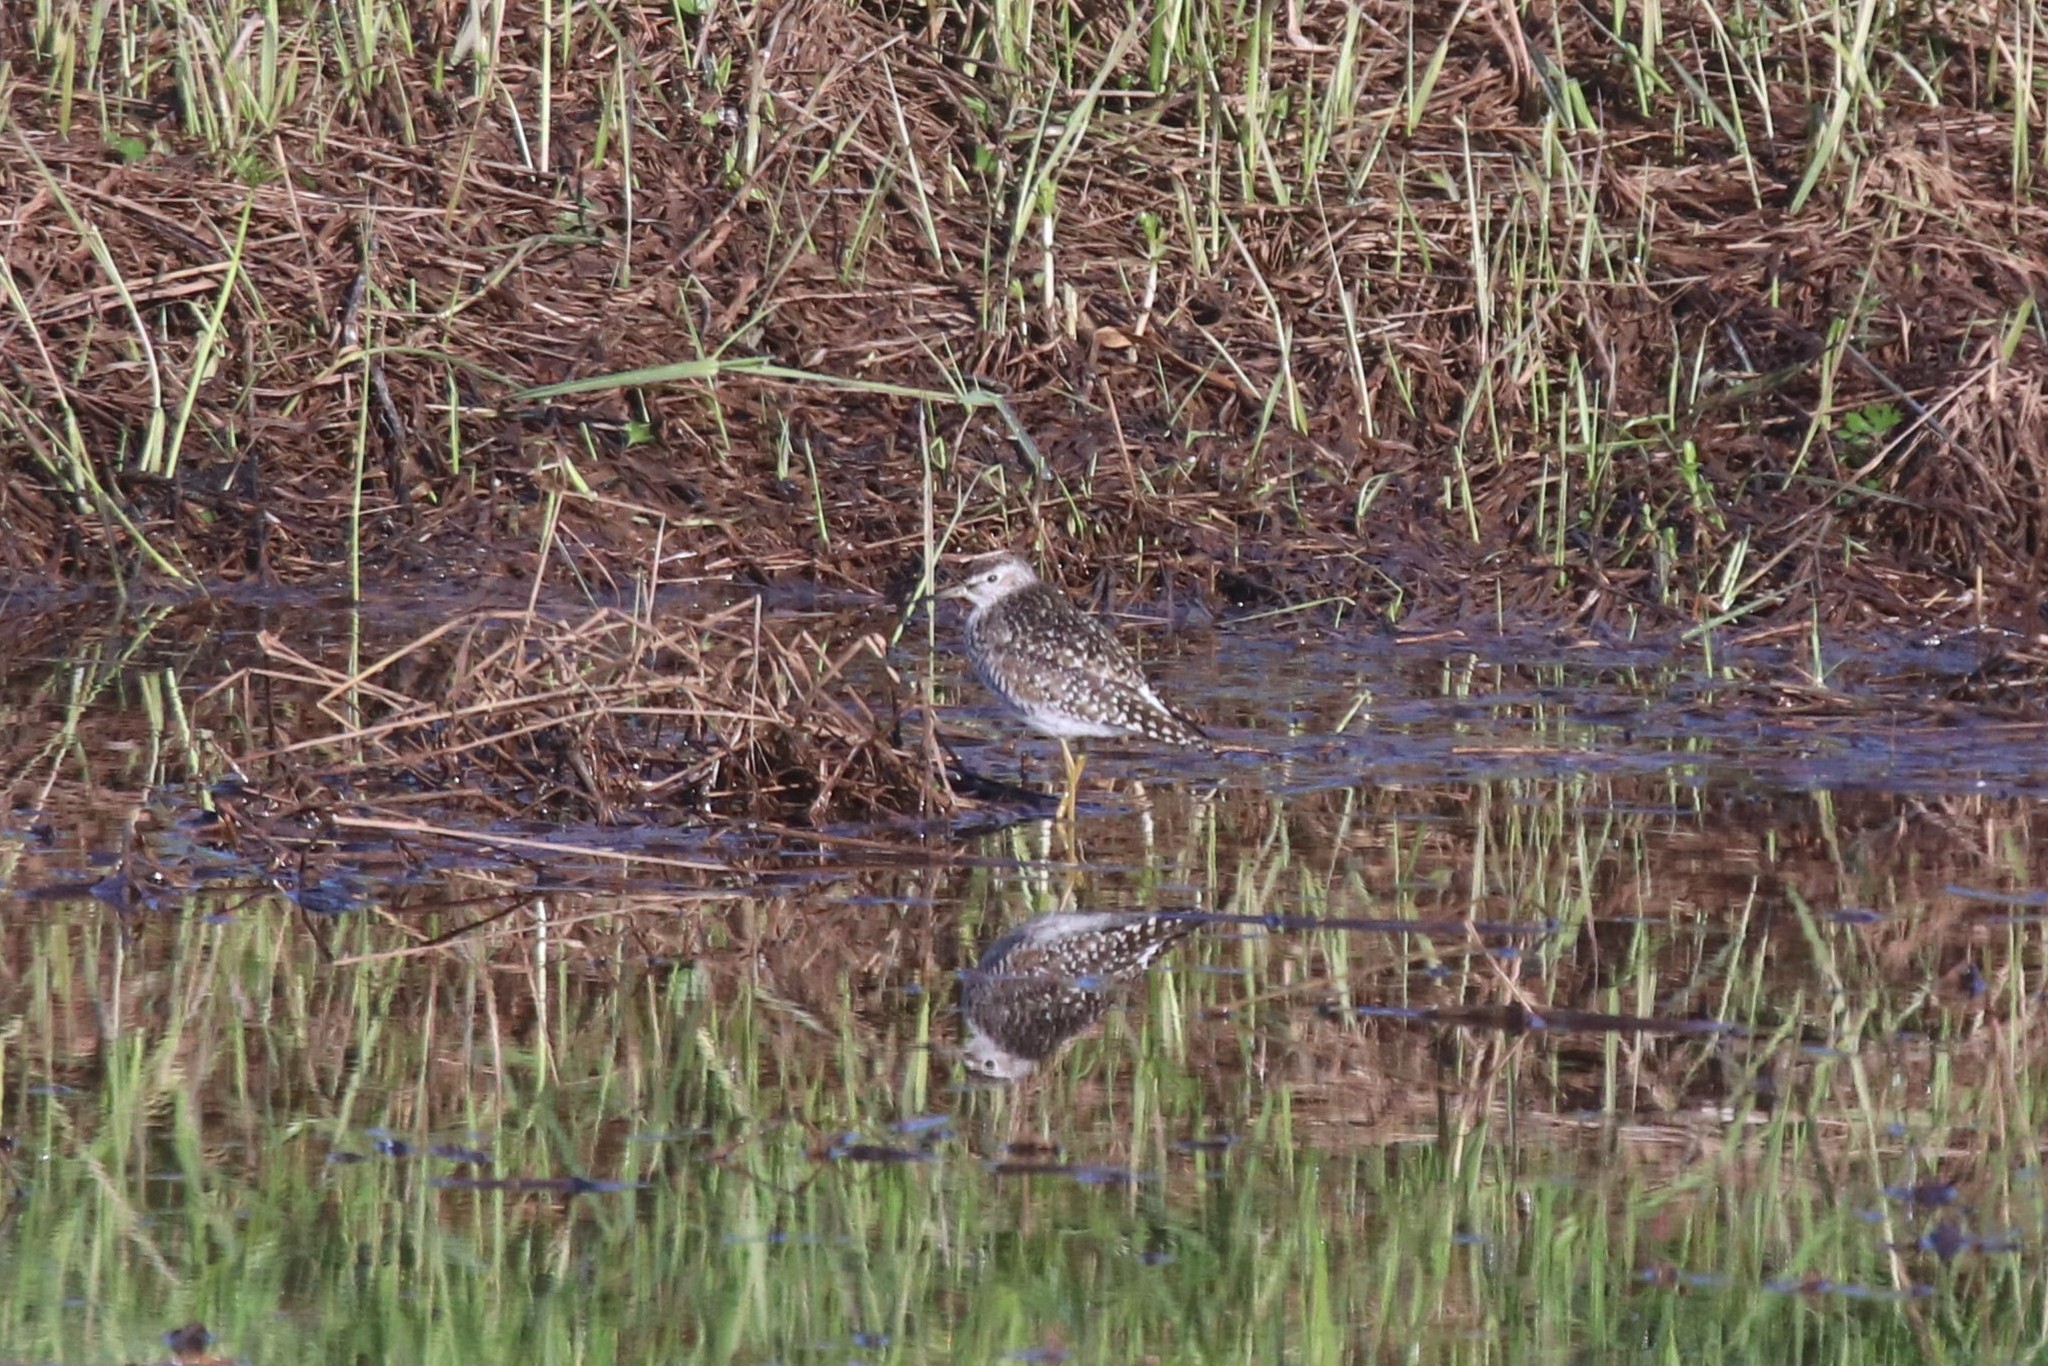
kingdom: Animalia
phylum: Chordata
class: Aves
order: Charadriiformes
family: Scolopacidae
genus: Tringa
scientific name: Tringa glareola
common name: Wood sandpiper
